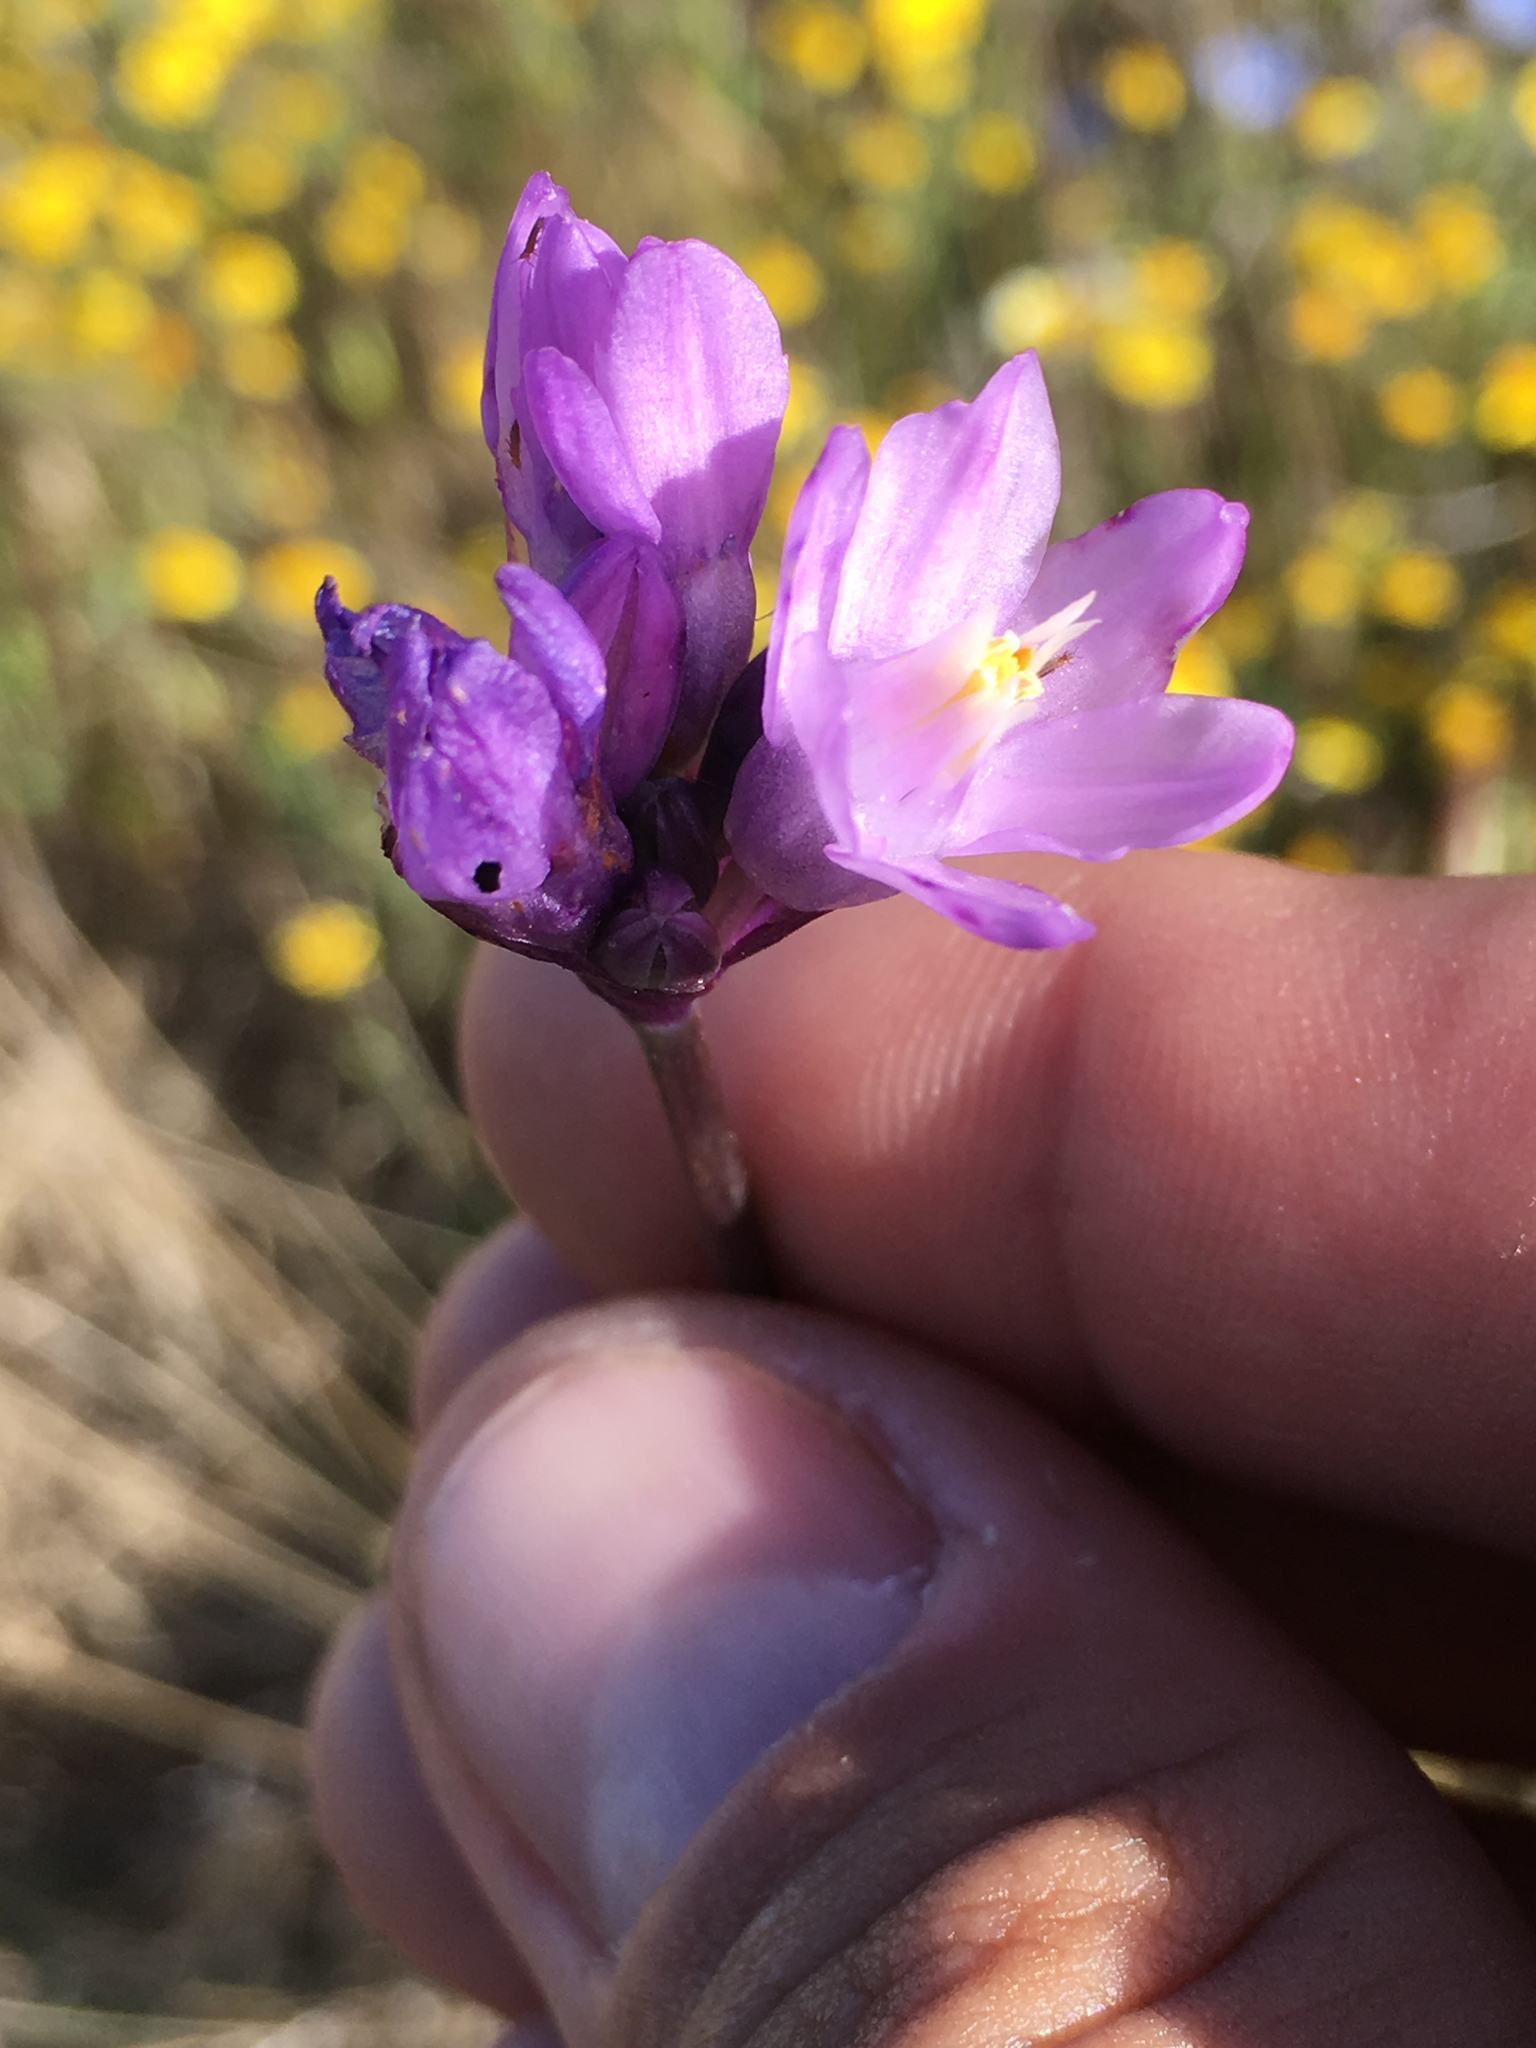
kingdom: Plantae
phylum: Tracheophyta
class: Liliopsida
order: Asparagales
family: Asparagaceae
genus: Dipterostemon
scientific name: Dipterostemon capitatus
